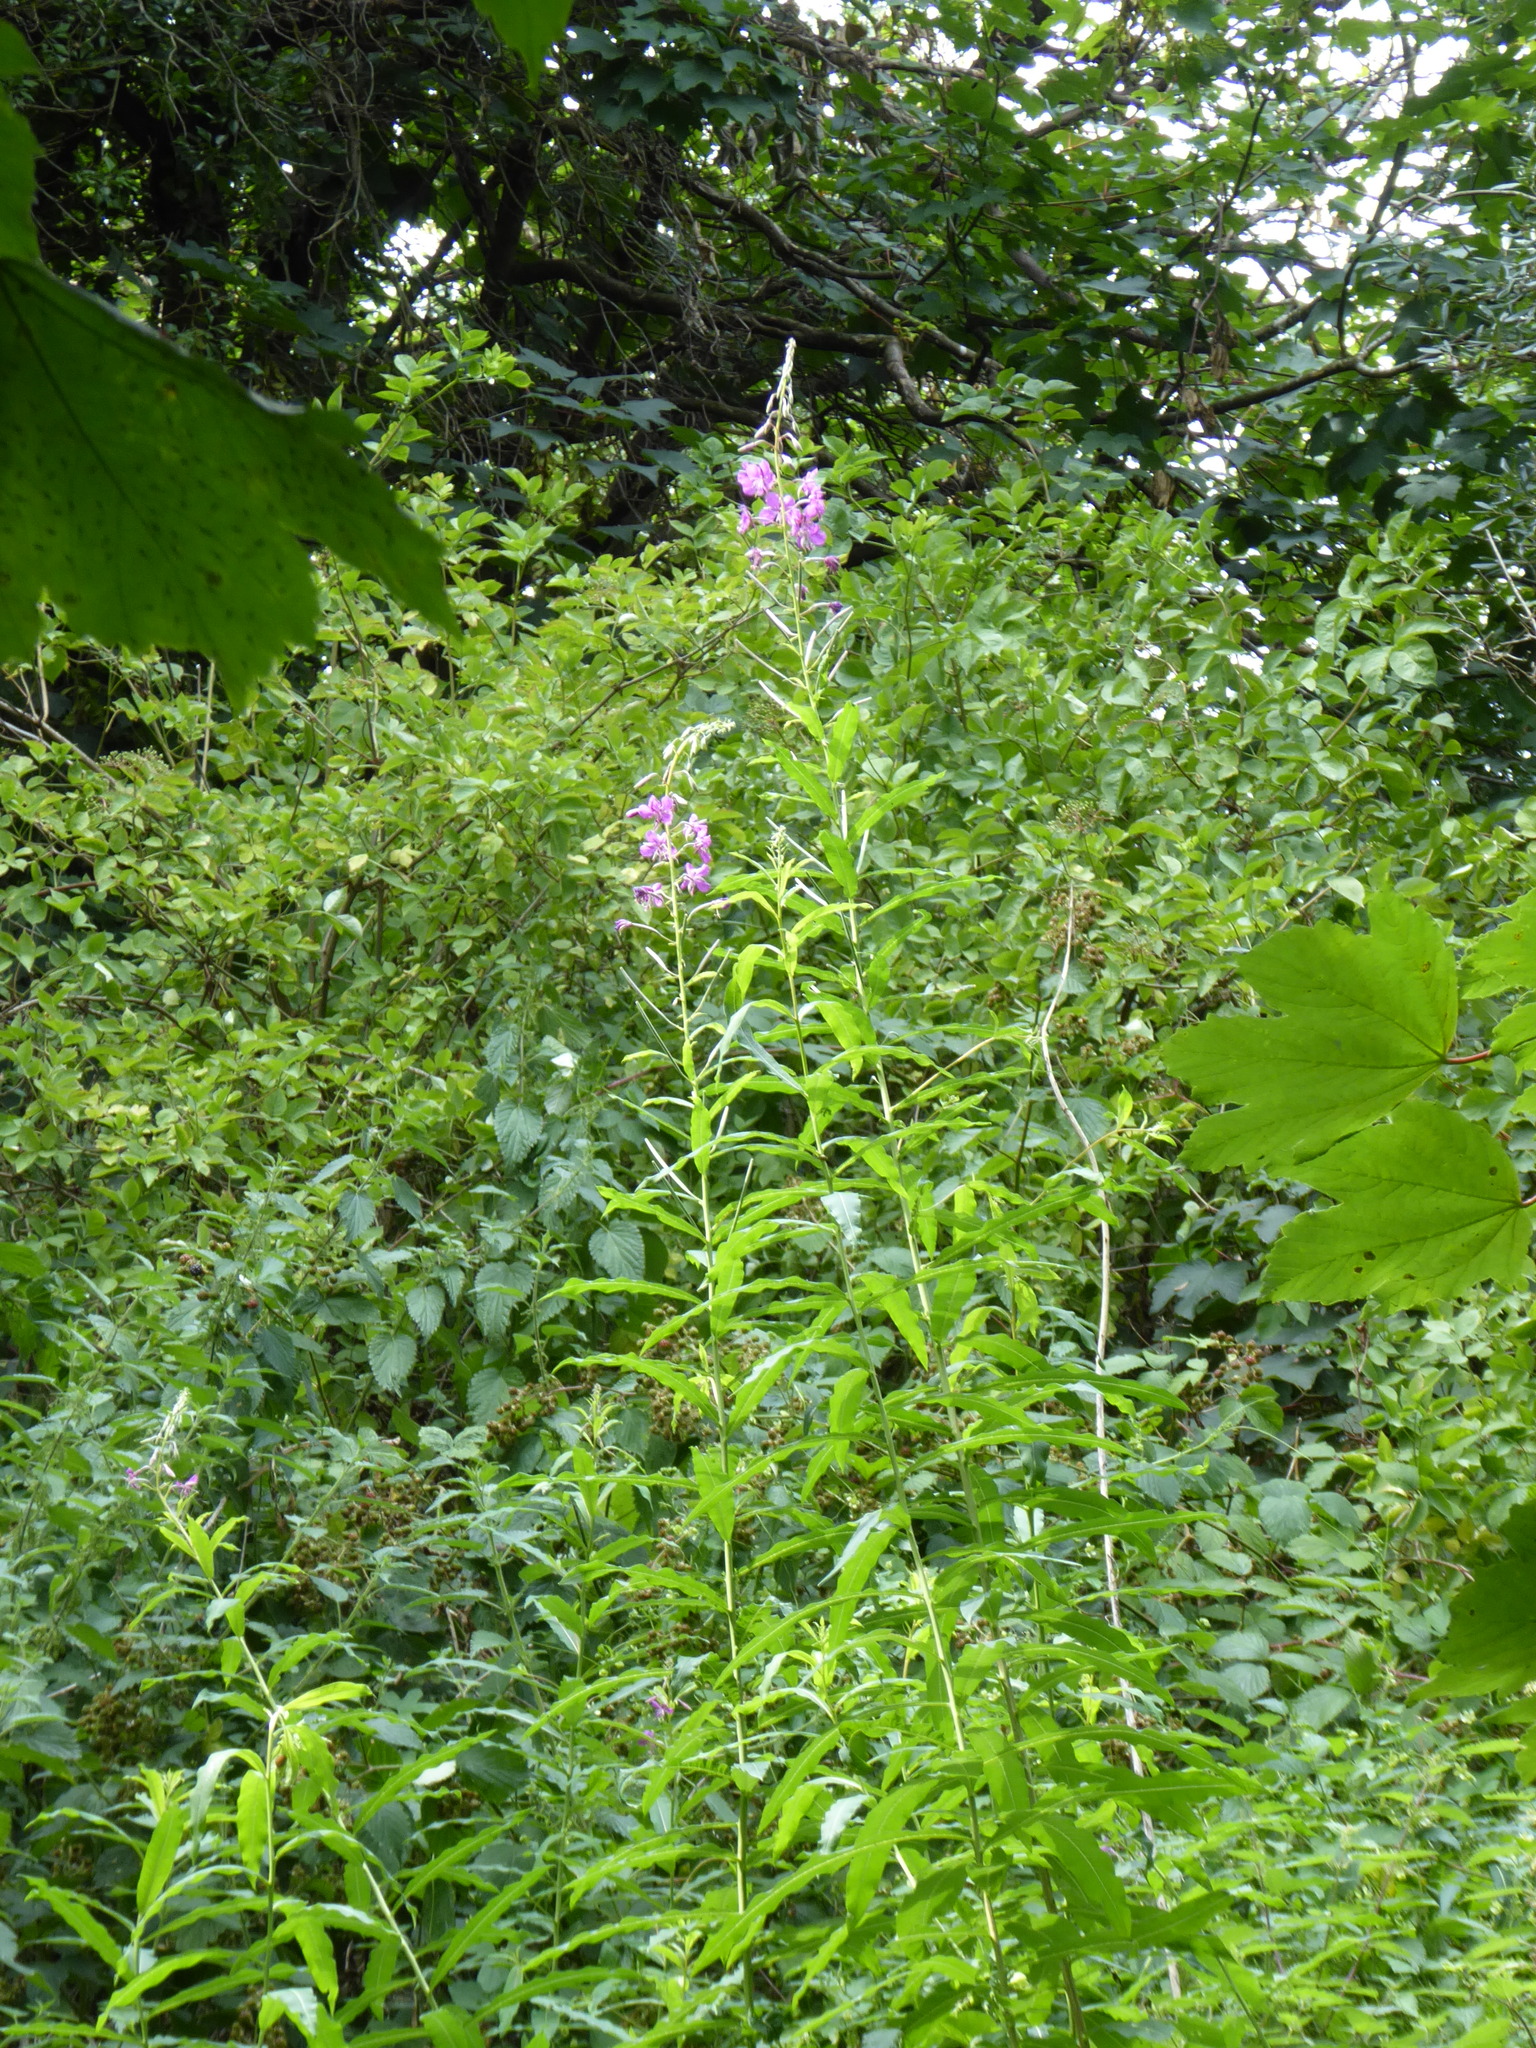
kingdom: Plantae
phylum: Tracheophyta
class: Magnoliopsida
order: Myrtales
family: Onagraceae
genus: Chamaenerion
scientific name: Chamaenerion angustifolium
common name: Fireweed
